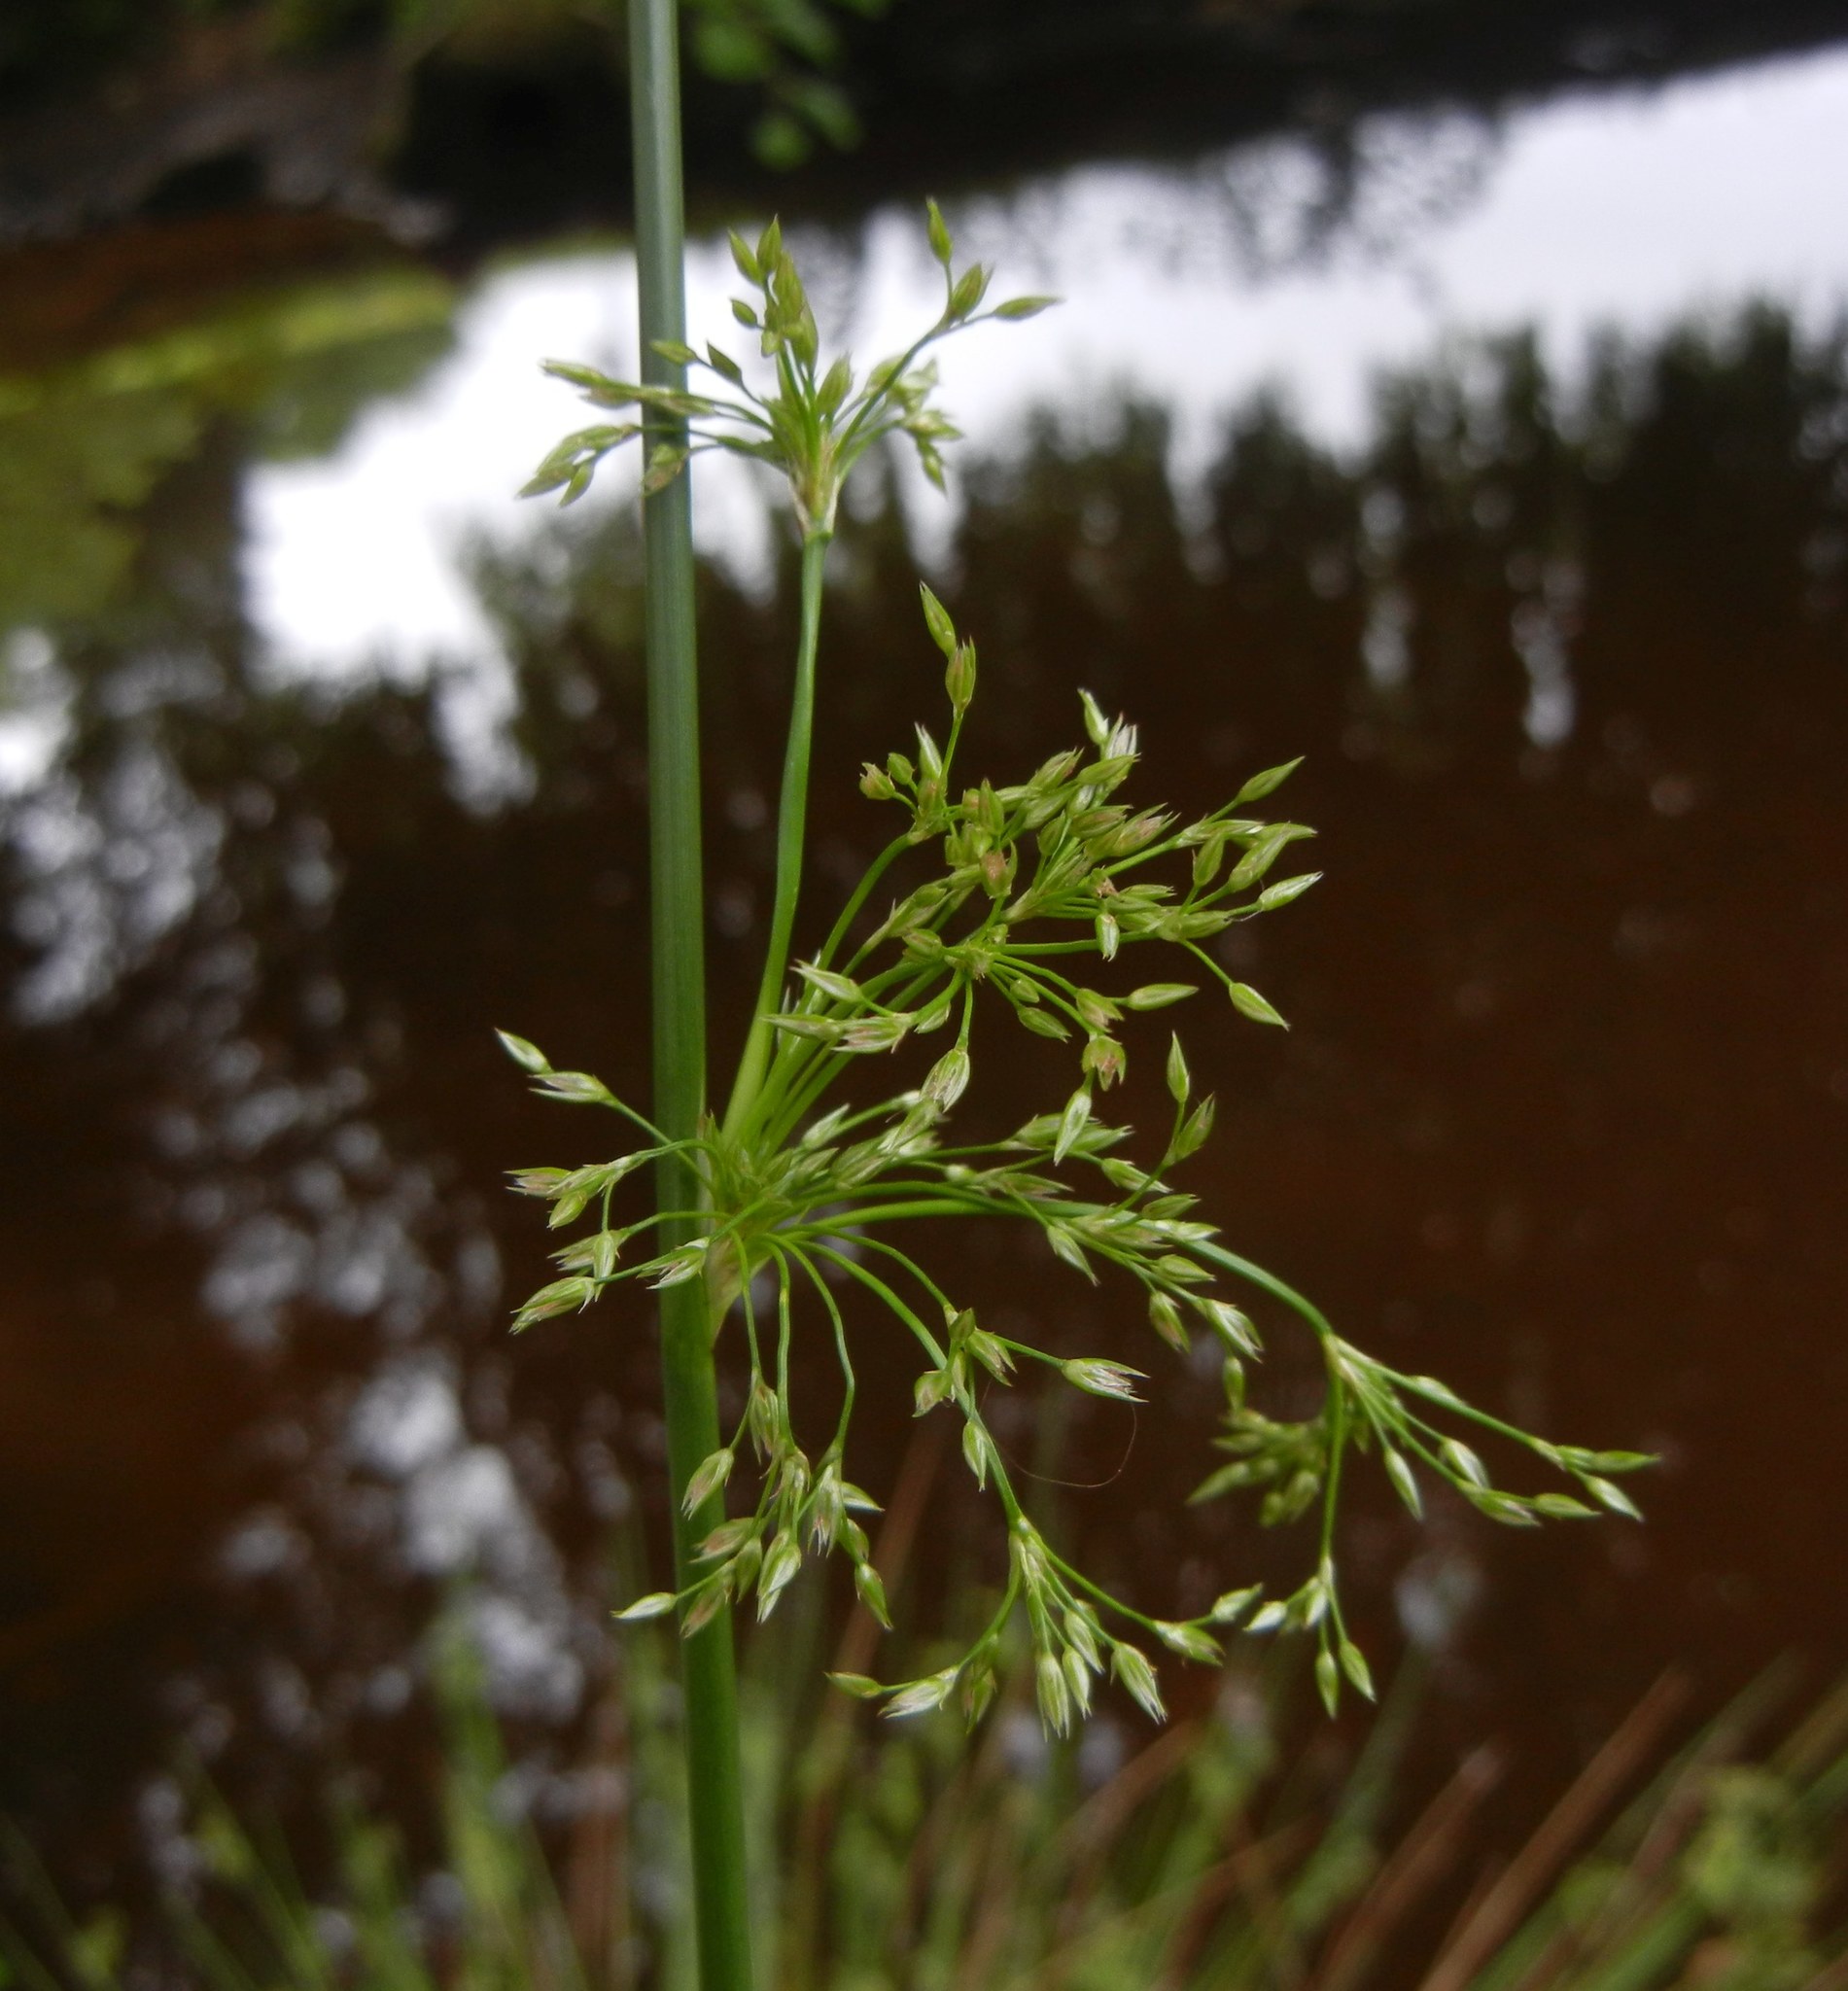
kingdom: Plantae
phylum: Tracheophyta
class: Liliopsida
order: Poales
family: Juncaceae
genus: Juncus
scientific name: Juncus effusus
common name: Soft rush
